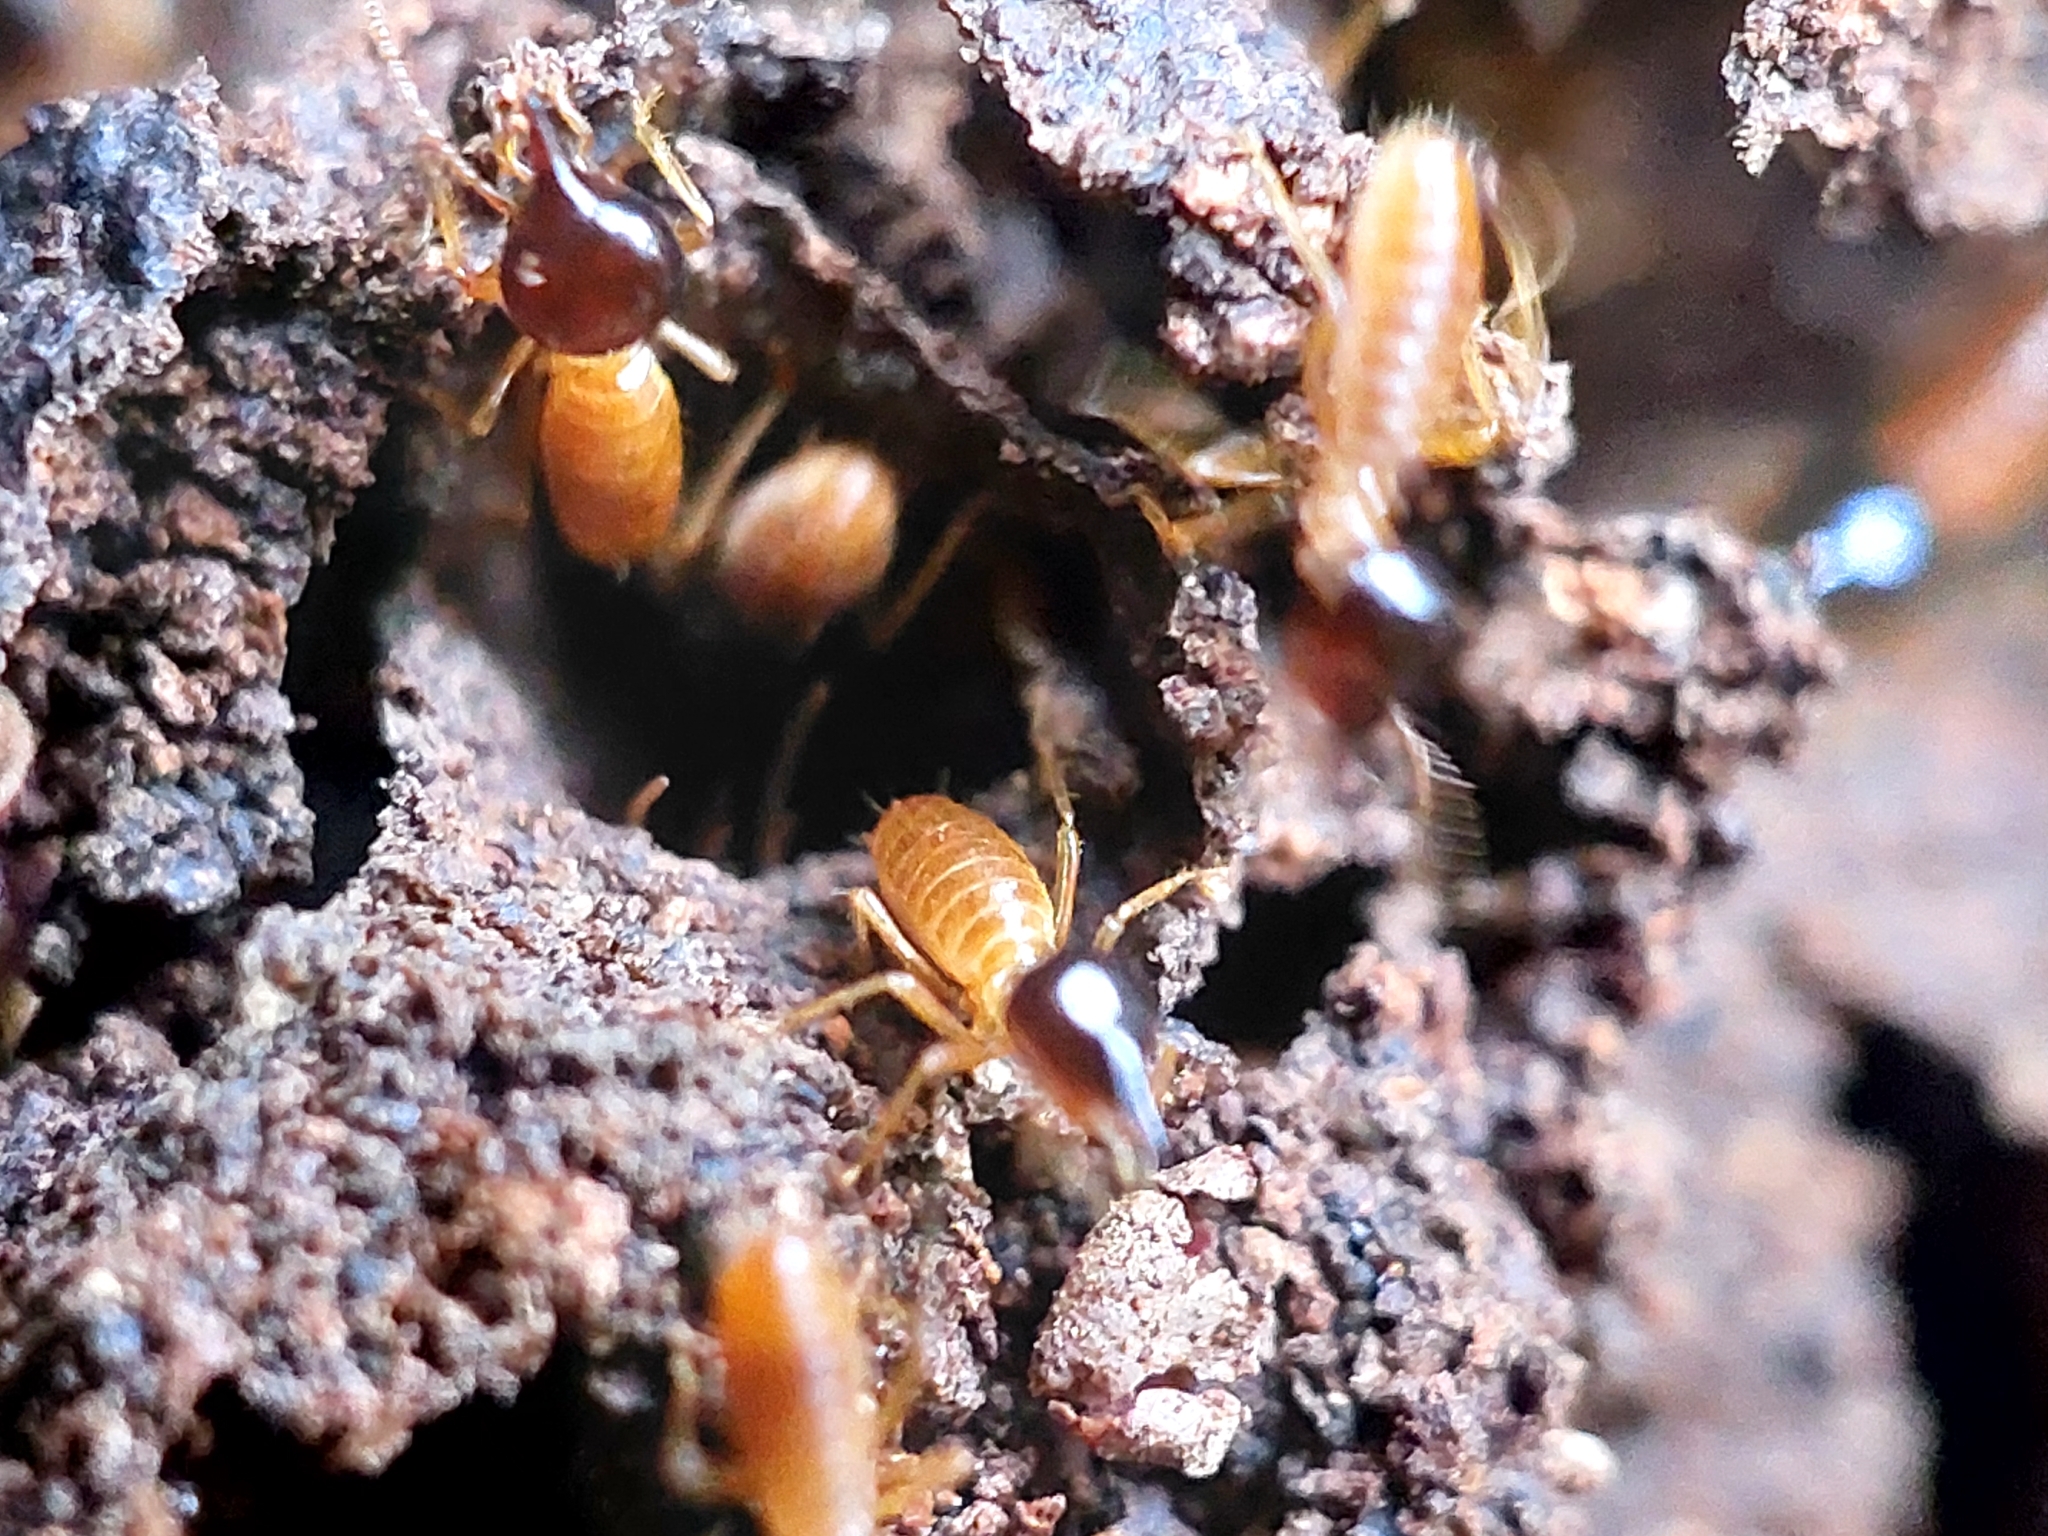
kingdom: Animalia
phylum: Arthropoda
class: Insecta
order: Blattodea
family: Termitidae
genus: Nasutitermes
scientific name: Nasutitermes
